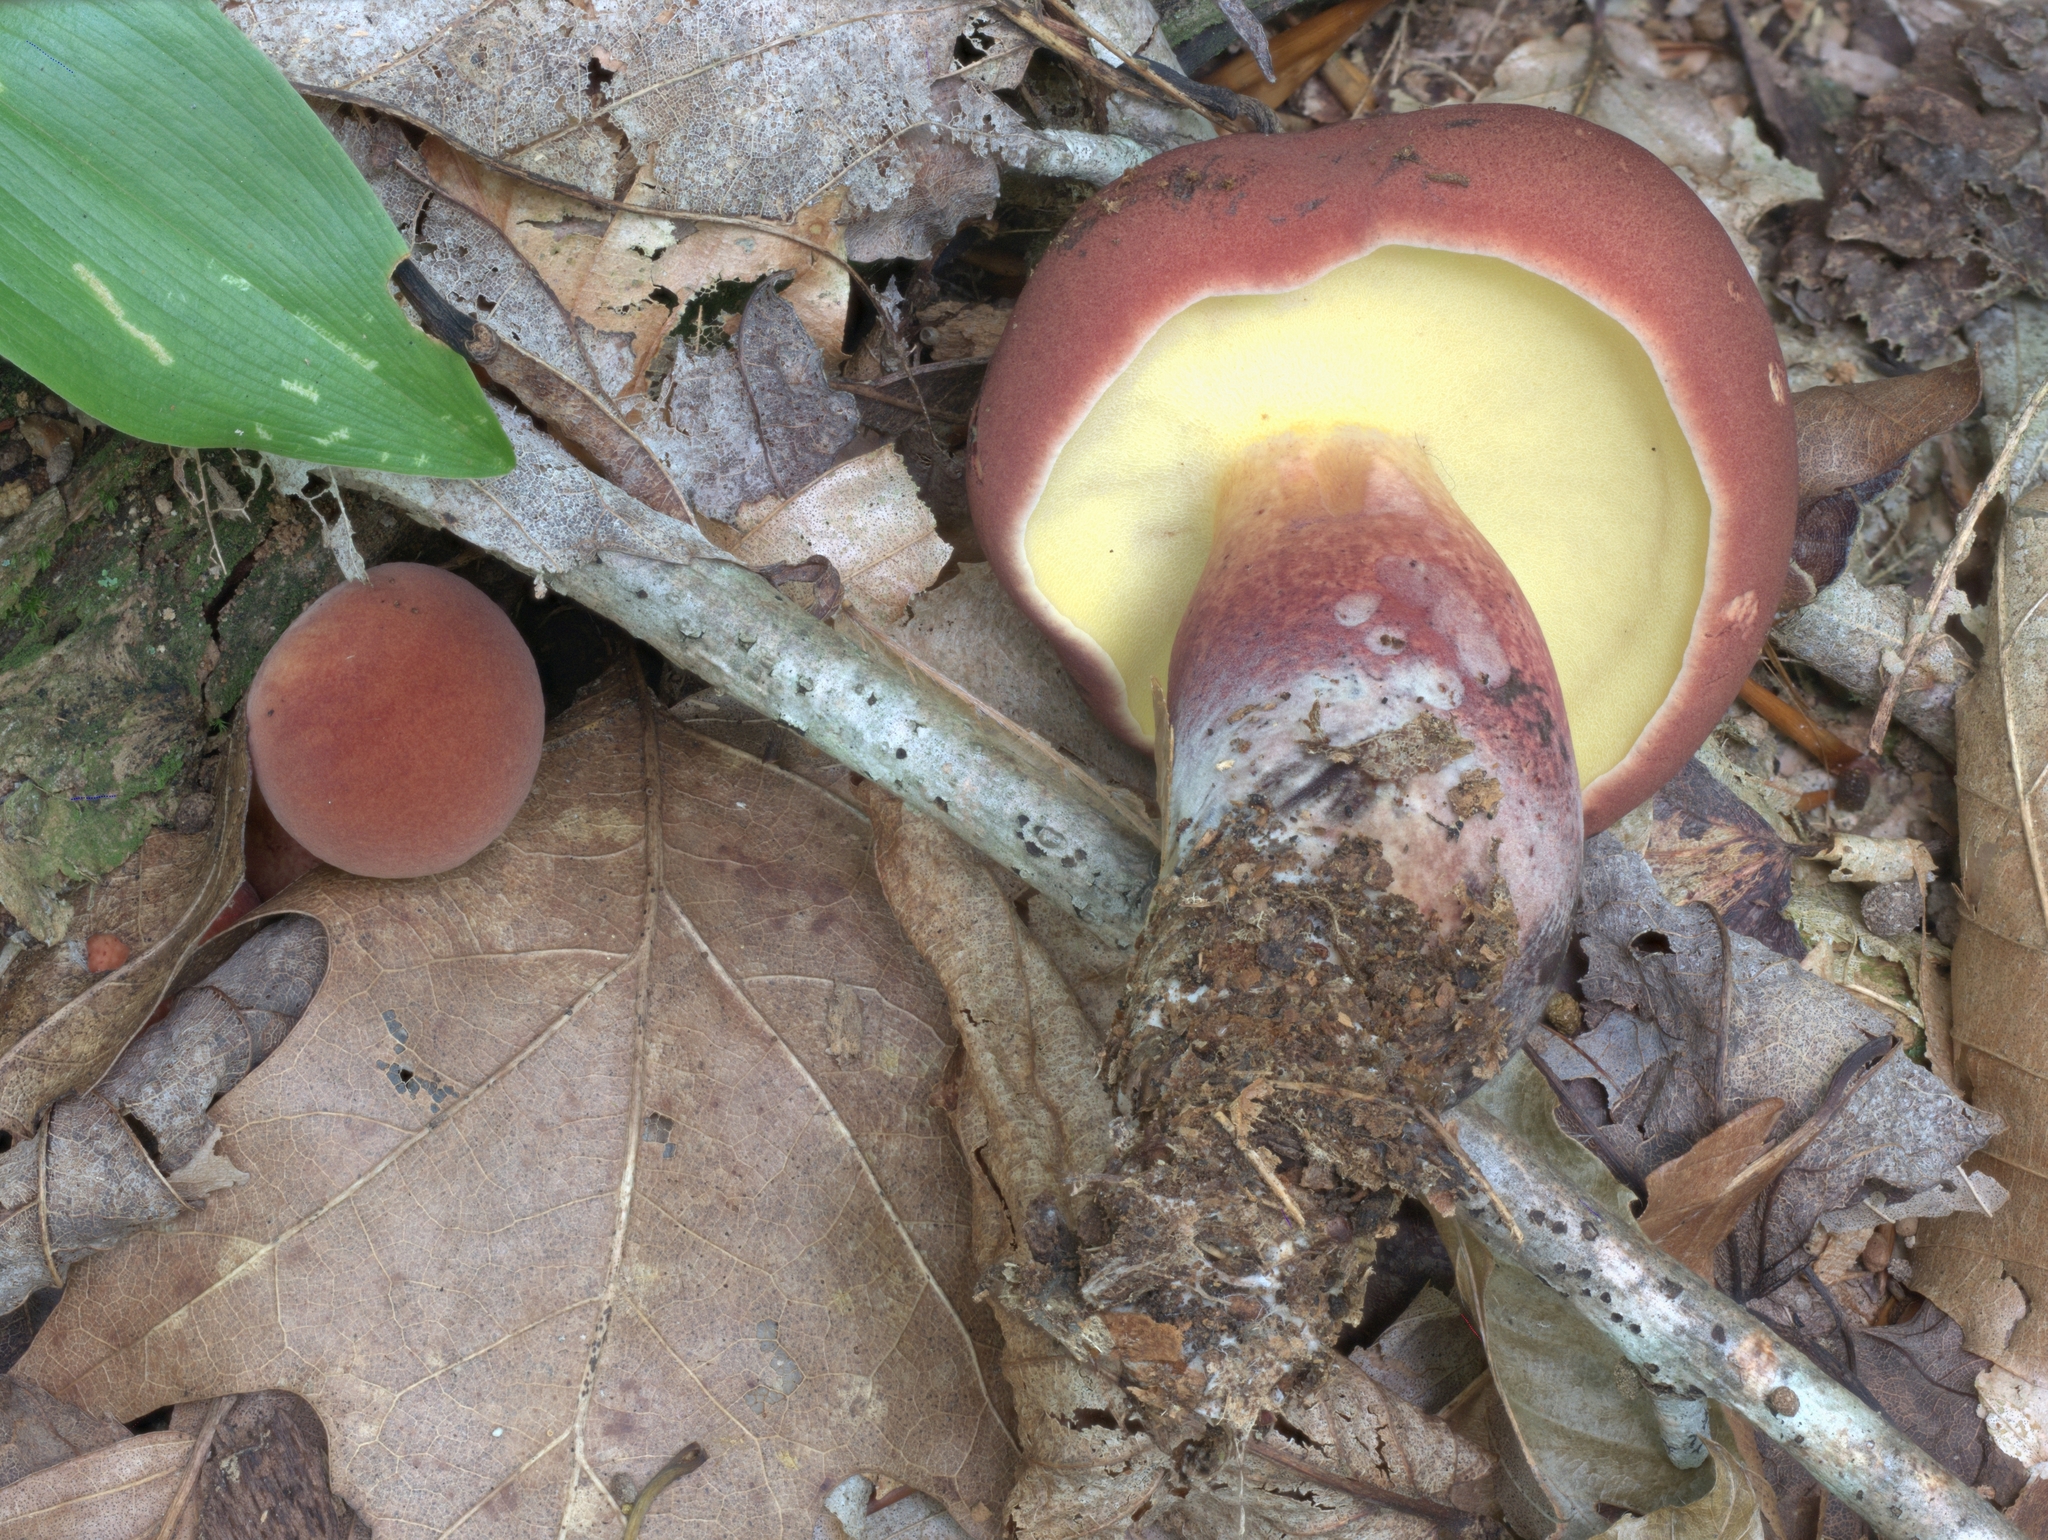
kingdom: Fungi
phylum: Basidiomycota
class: Agaricomycetes
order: Boletales
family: Boletaceae
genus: Baorangia
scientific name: Baorangia bicolor
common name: Two-colored bolete
